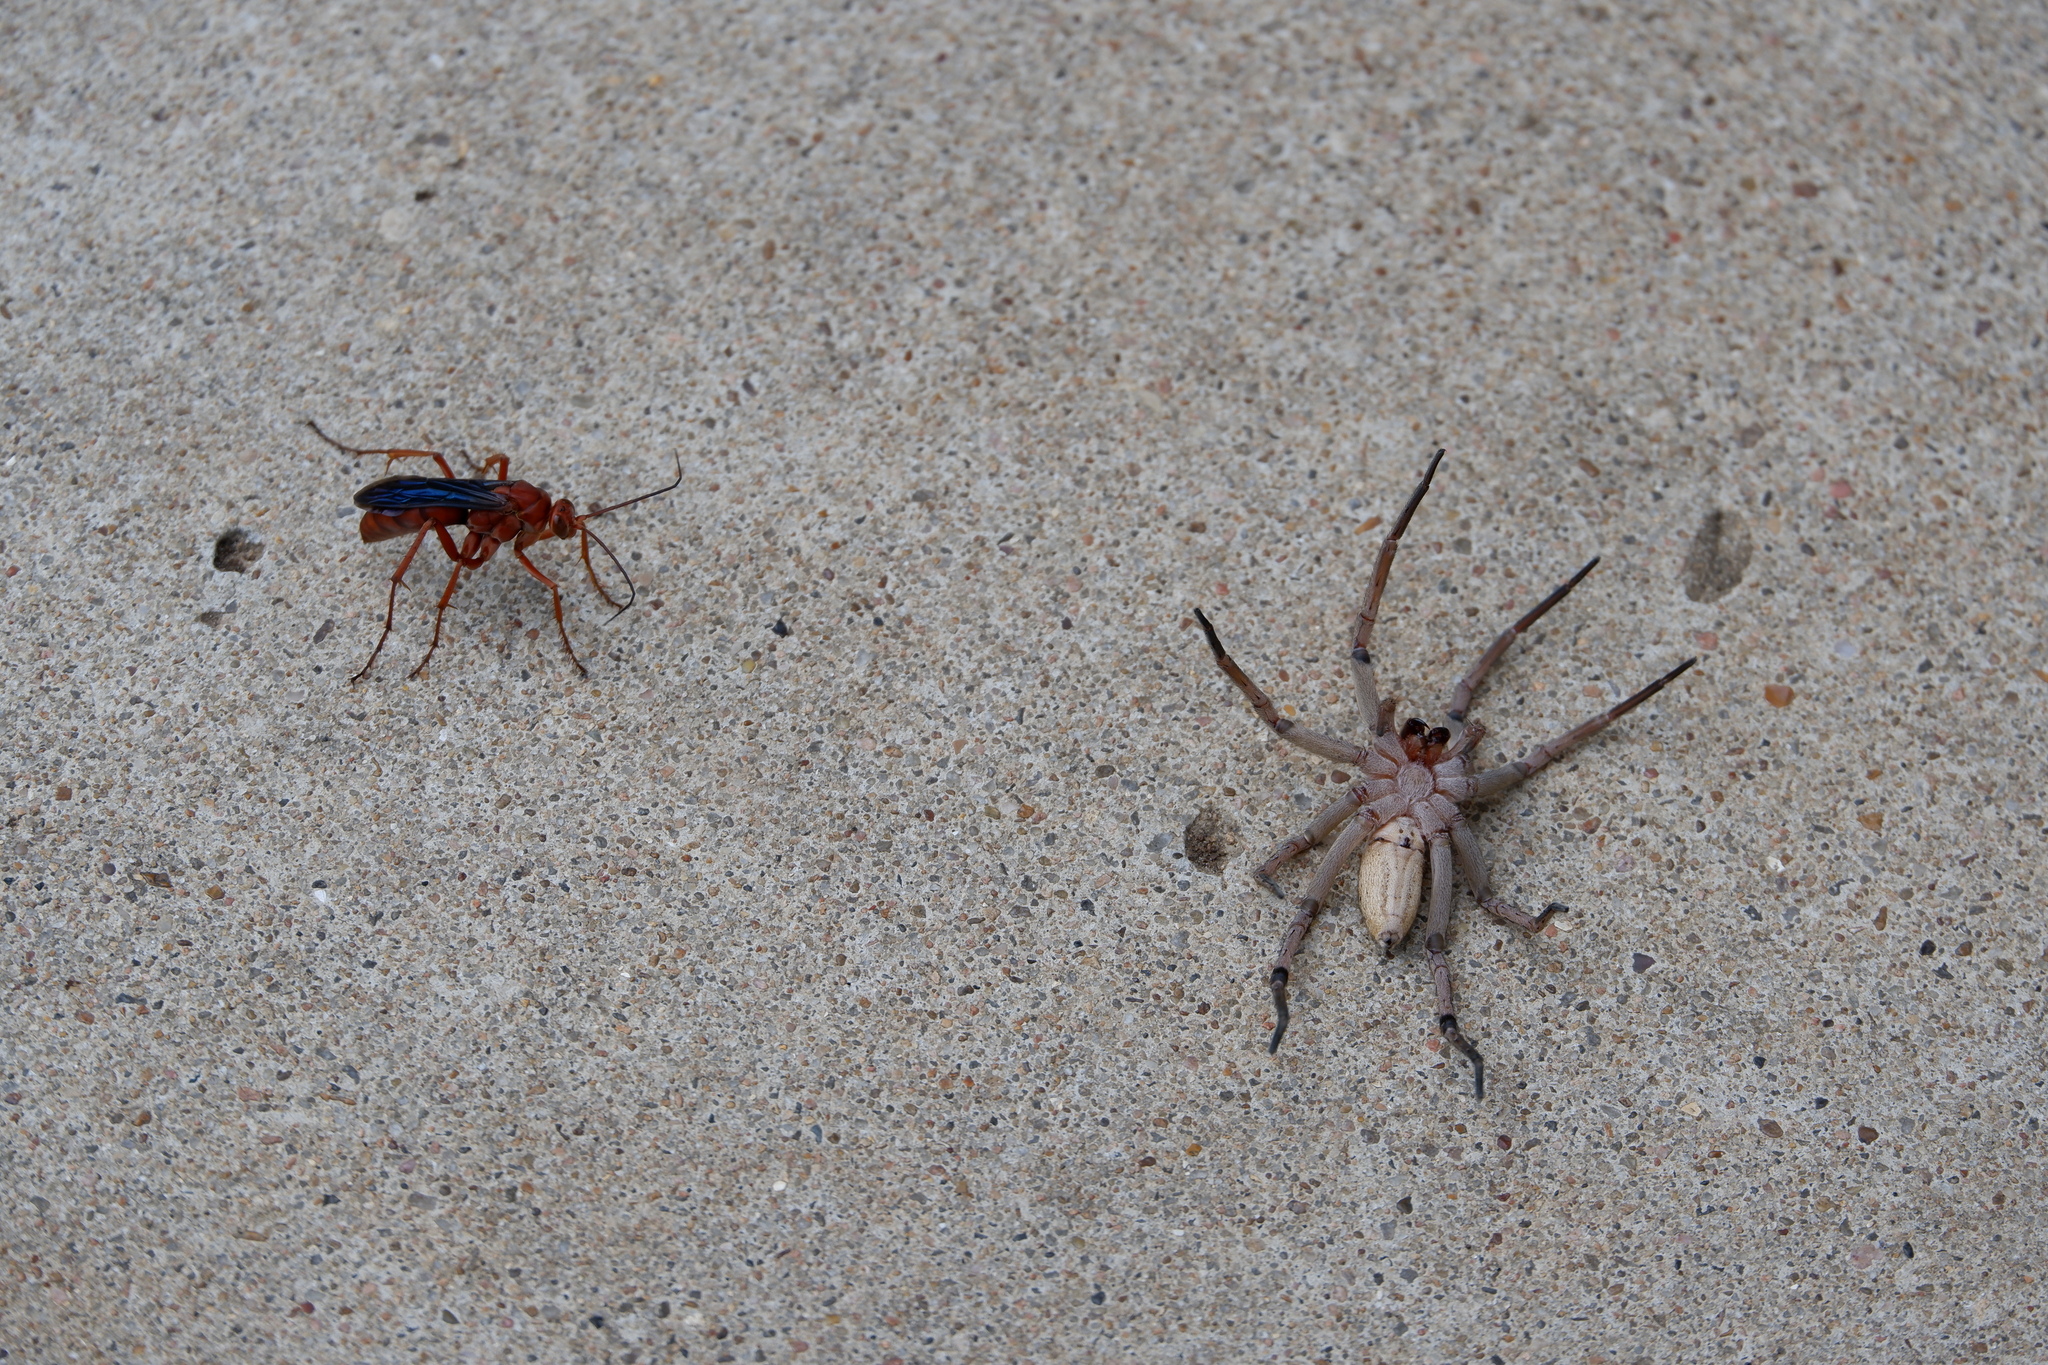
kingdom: Animalia
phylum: Arthropoda
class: Arachnida
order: Araneae
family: Lycosidae
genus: Rabidosa
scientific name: Rabidosa rabida
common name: Rabid wolf spider
